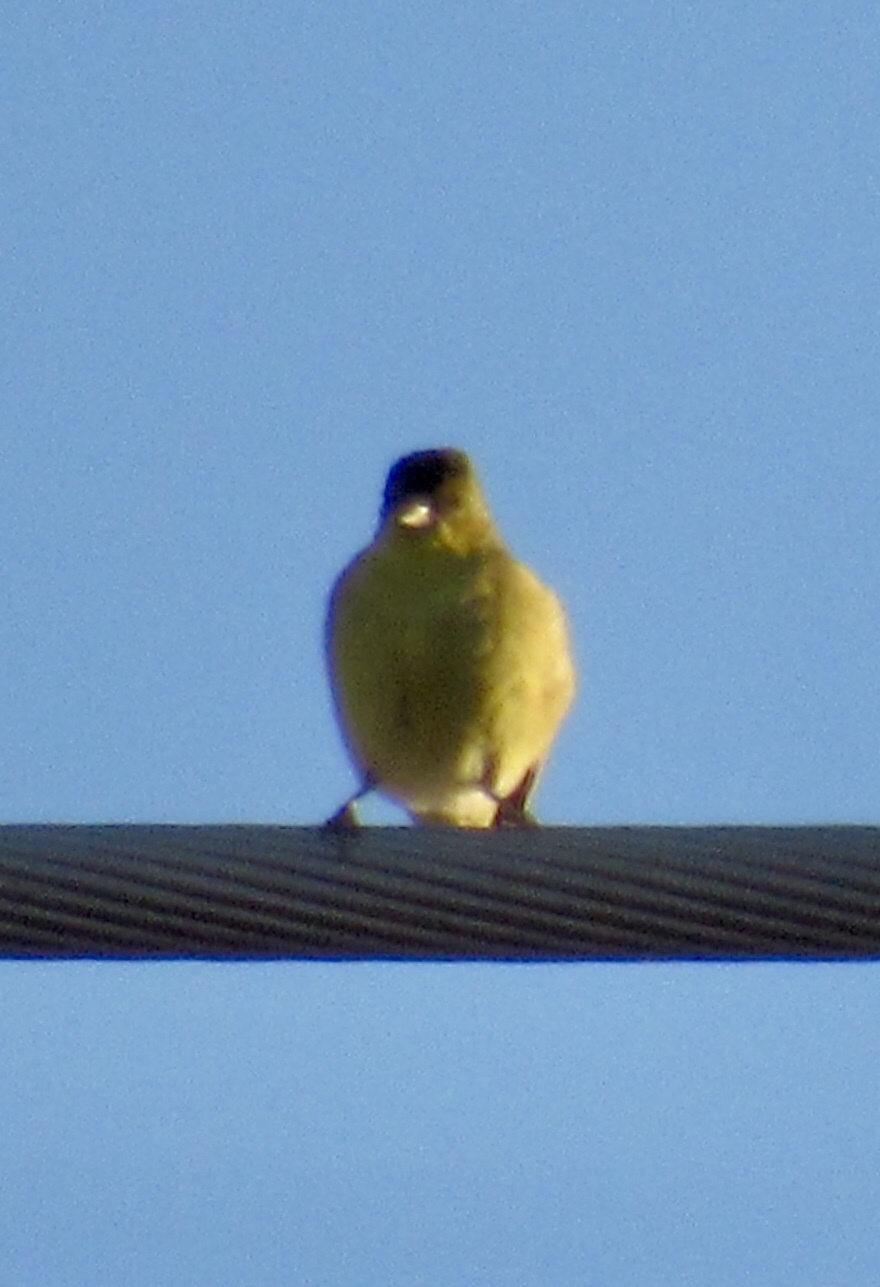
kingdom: Animalia
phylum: Chordata
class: Aves
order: Passeriformes
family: Fringillidae
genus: Spinus
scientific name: Spinus psaltria
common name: Lesser goldfinch
